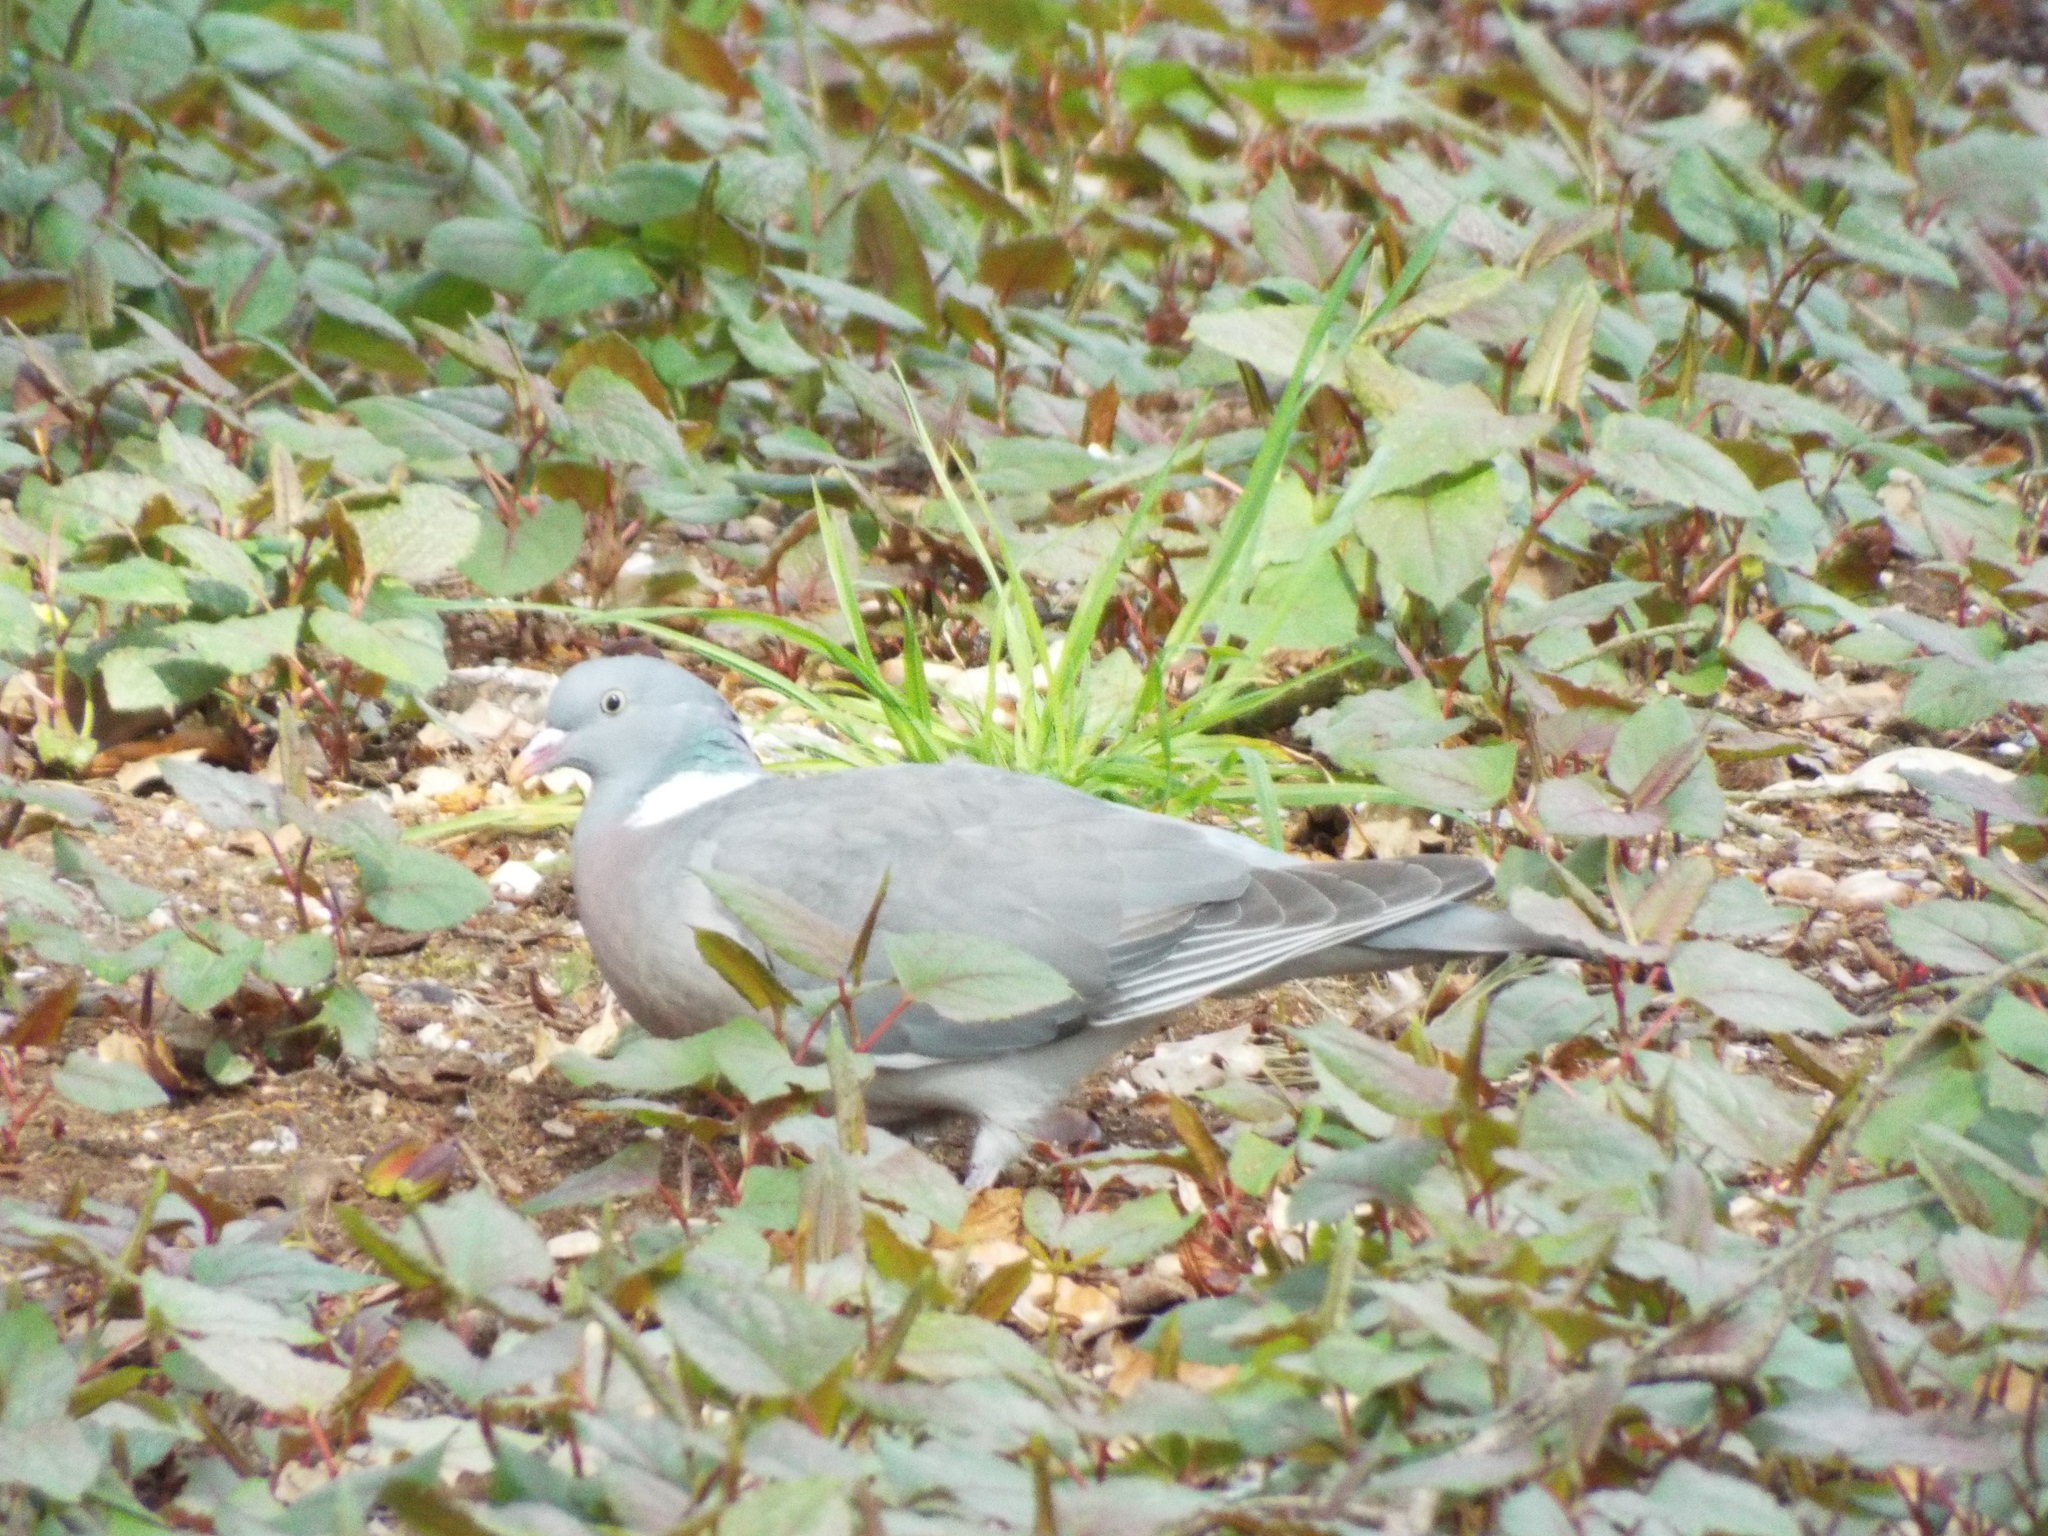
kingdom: Animalia
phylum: Chordata
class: Aves
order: Columbiformes
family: Columbidae
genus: Columba
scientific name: Columba palumbus
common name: Common wood pigeon
